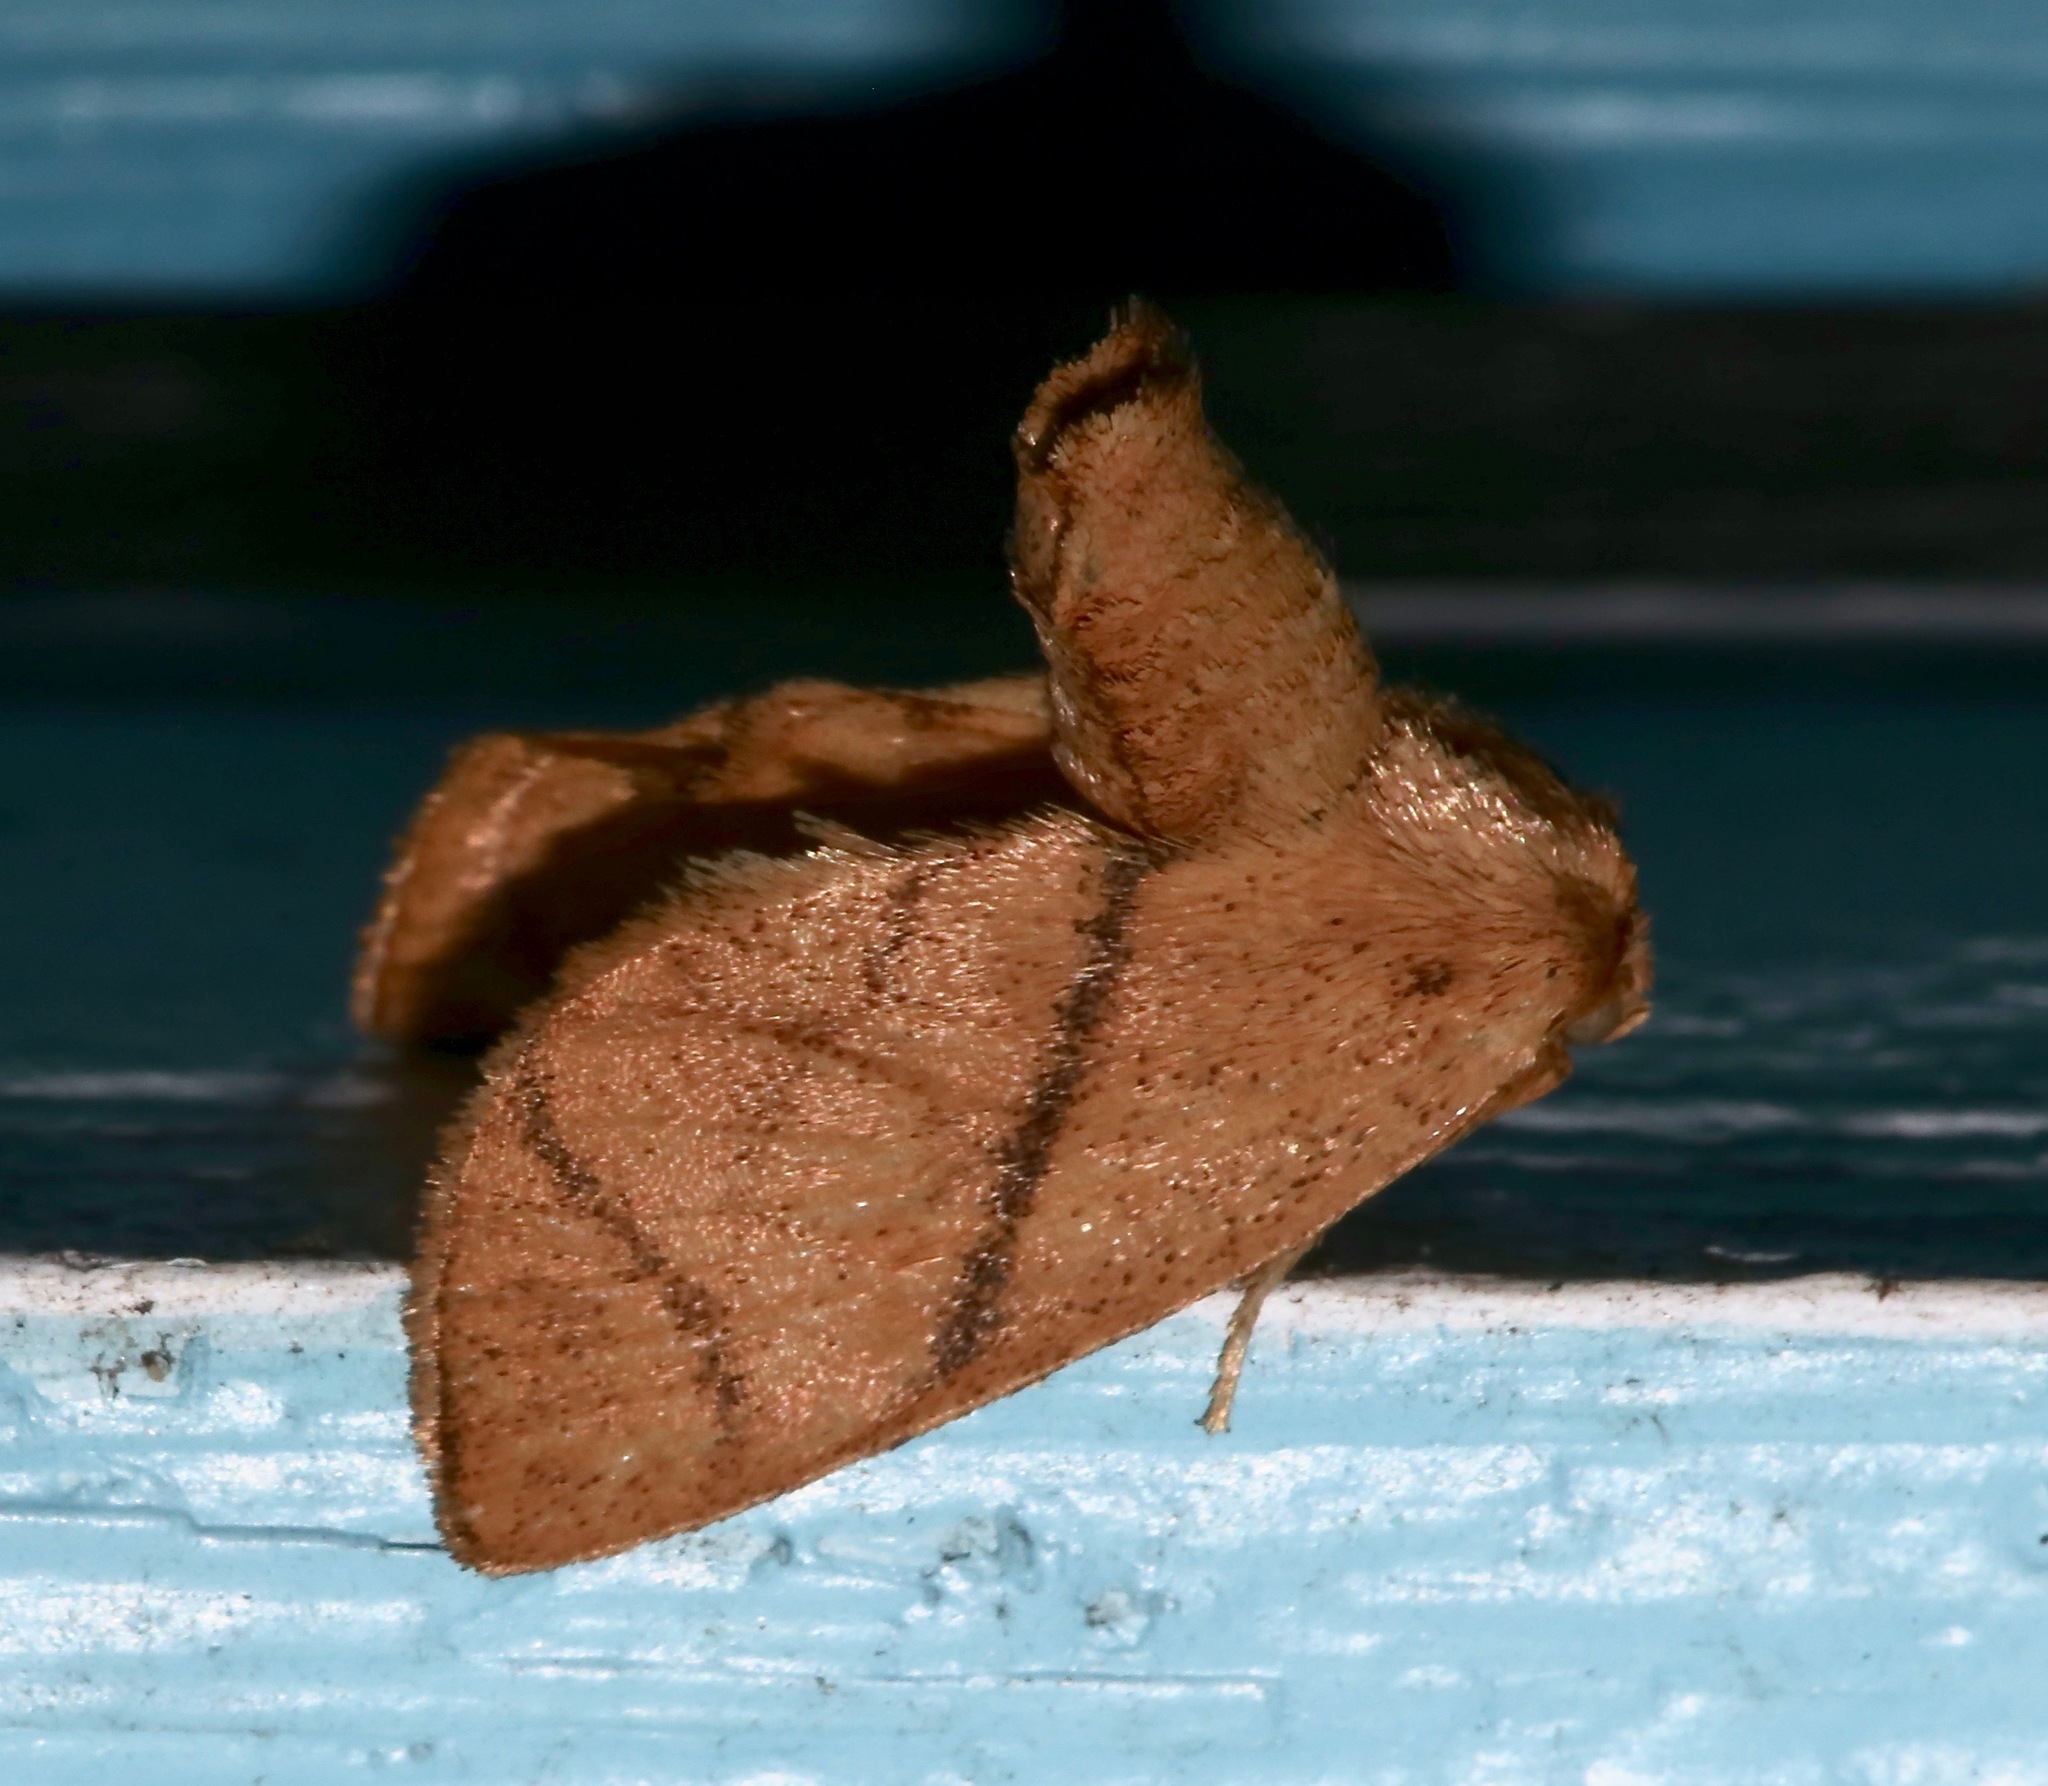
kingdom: Animalia
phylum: Arthropoda
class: Insecta
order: Lepidoptera
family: Limacodidae
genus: Apoda
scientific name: Apoda y-inversa
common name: Yellow-collared slug moth
